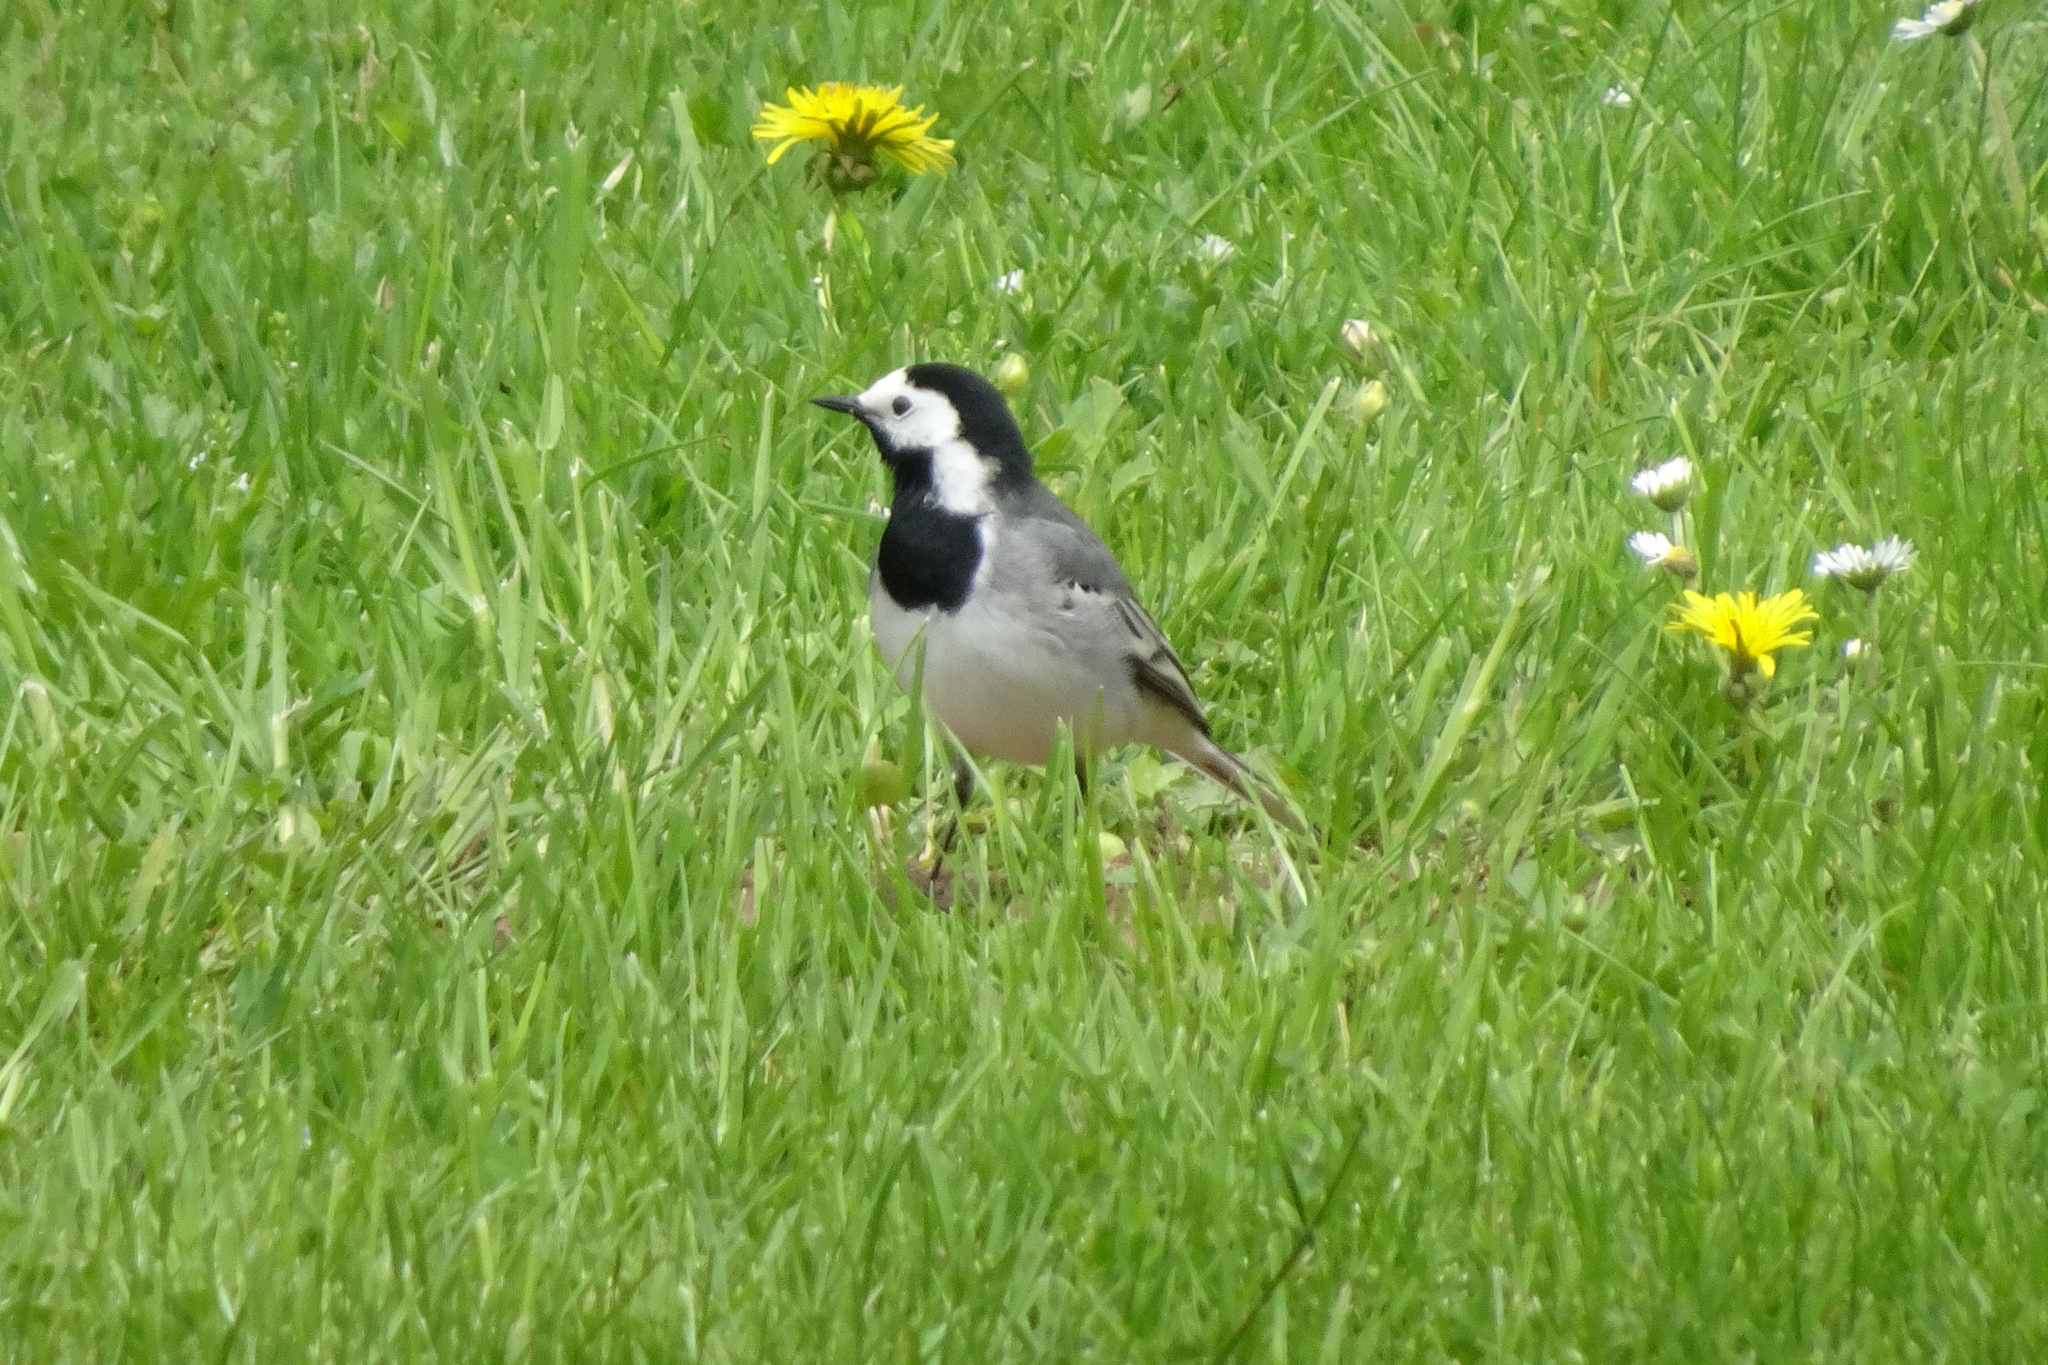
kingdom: Animalia
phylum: Chordata
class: Aves
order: Passeriformes
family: Motacillidae
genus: Motacilla
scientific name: Motacilla alba
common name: White wagtail
